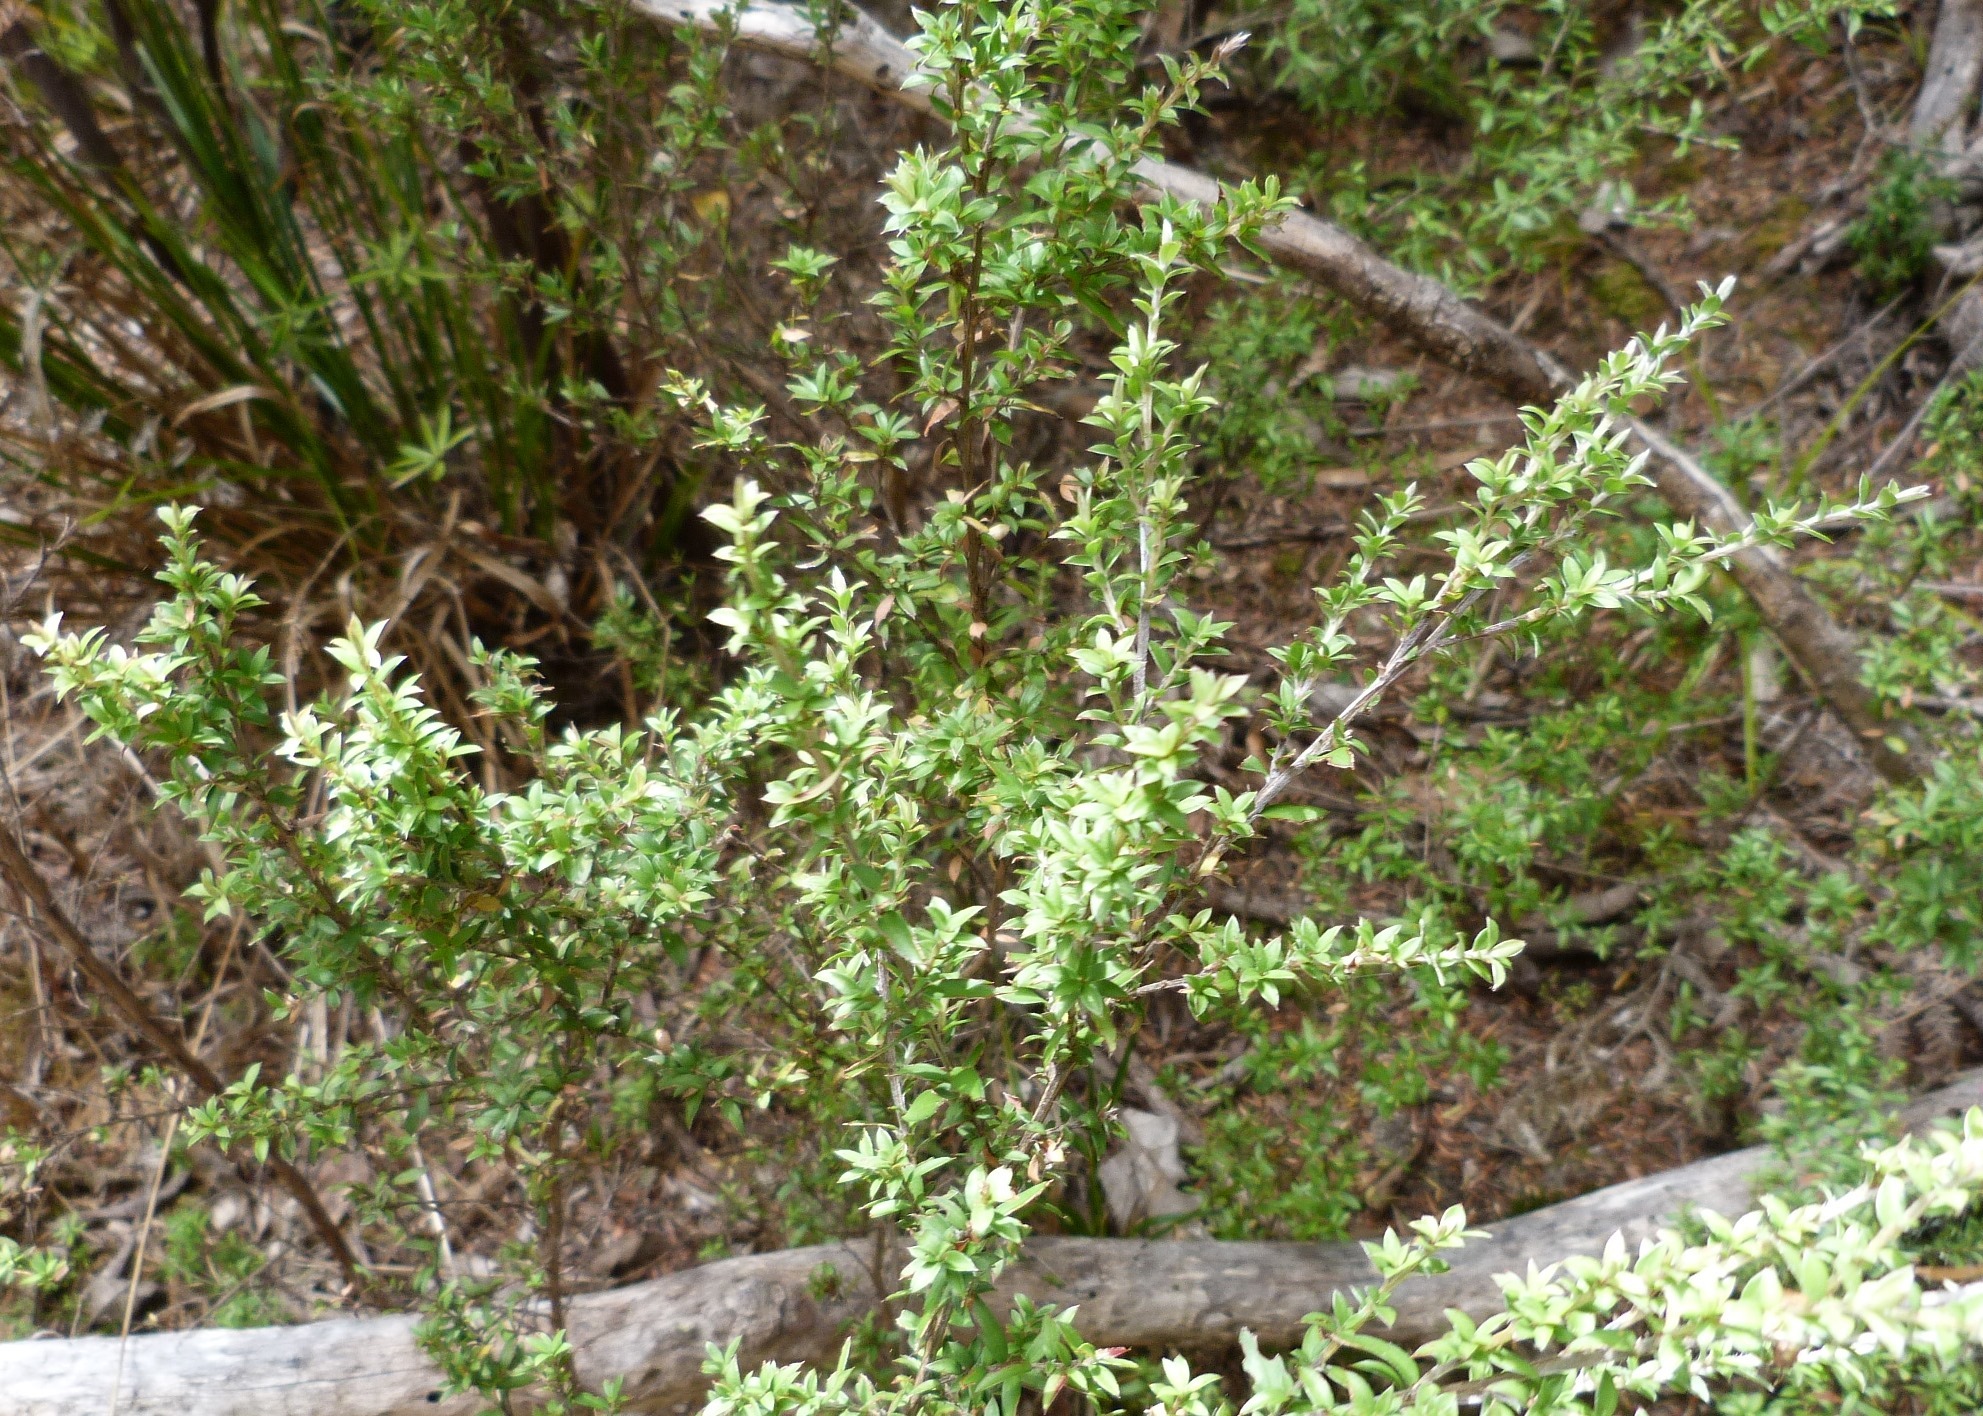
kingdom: Plantae
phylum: Tracheophyta
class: Magnoliopsida
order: Myrtales
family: Myrtaceae
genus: Leptospermum
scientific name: Leptospermum scoparium
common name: Broom tea-tree
